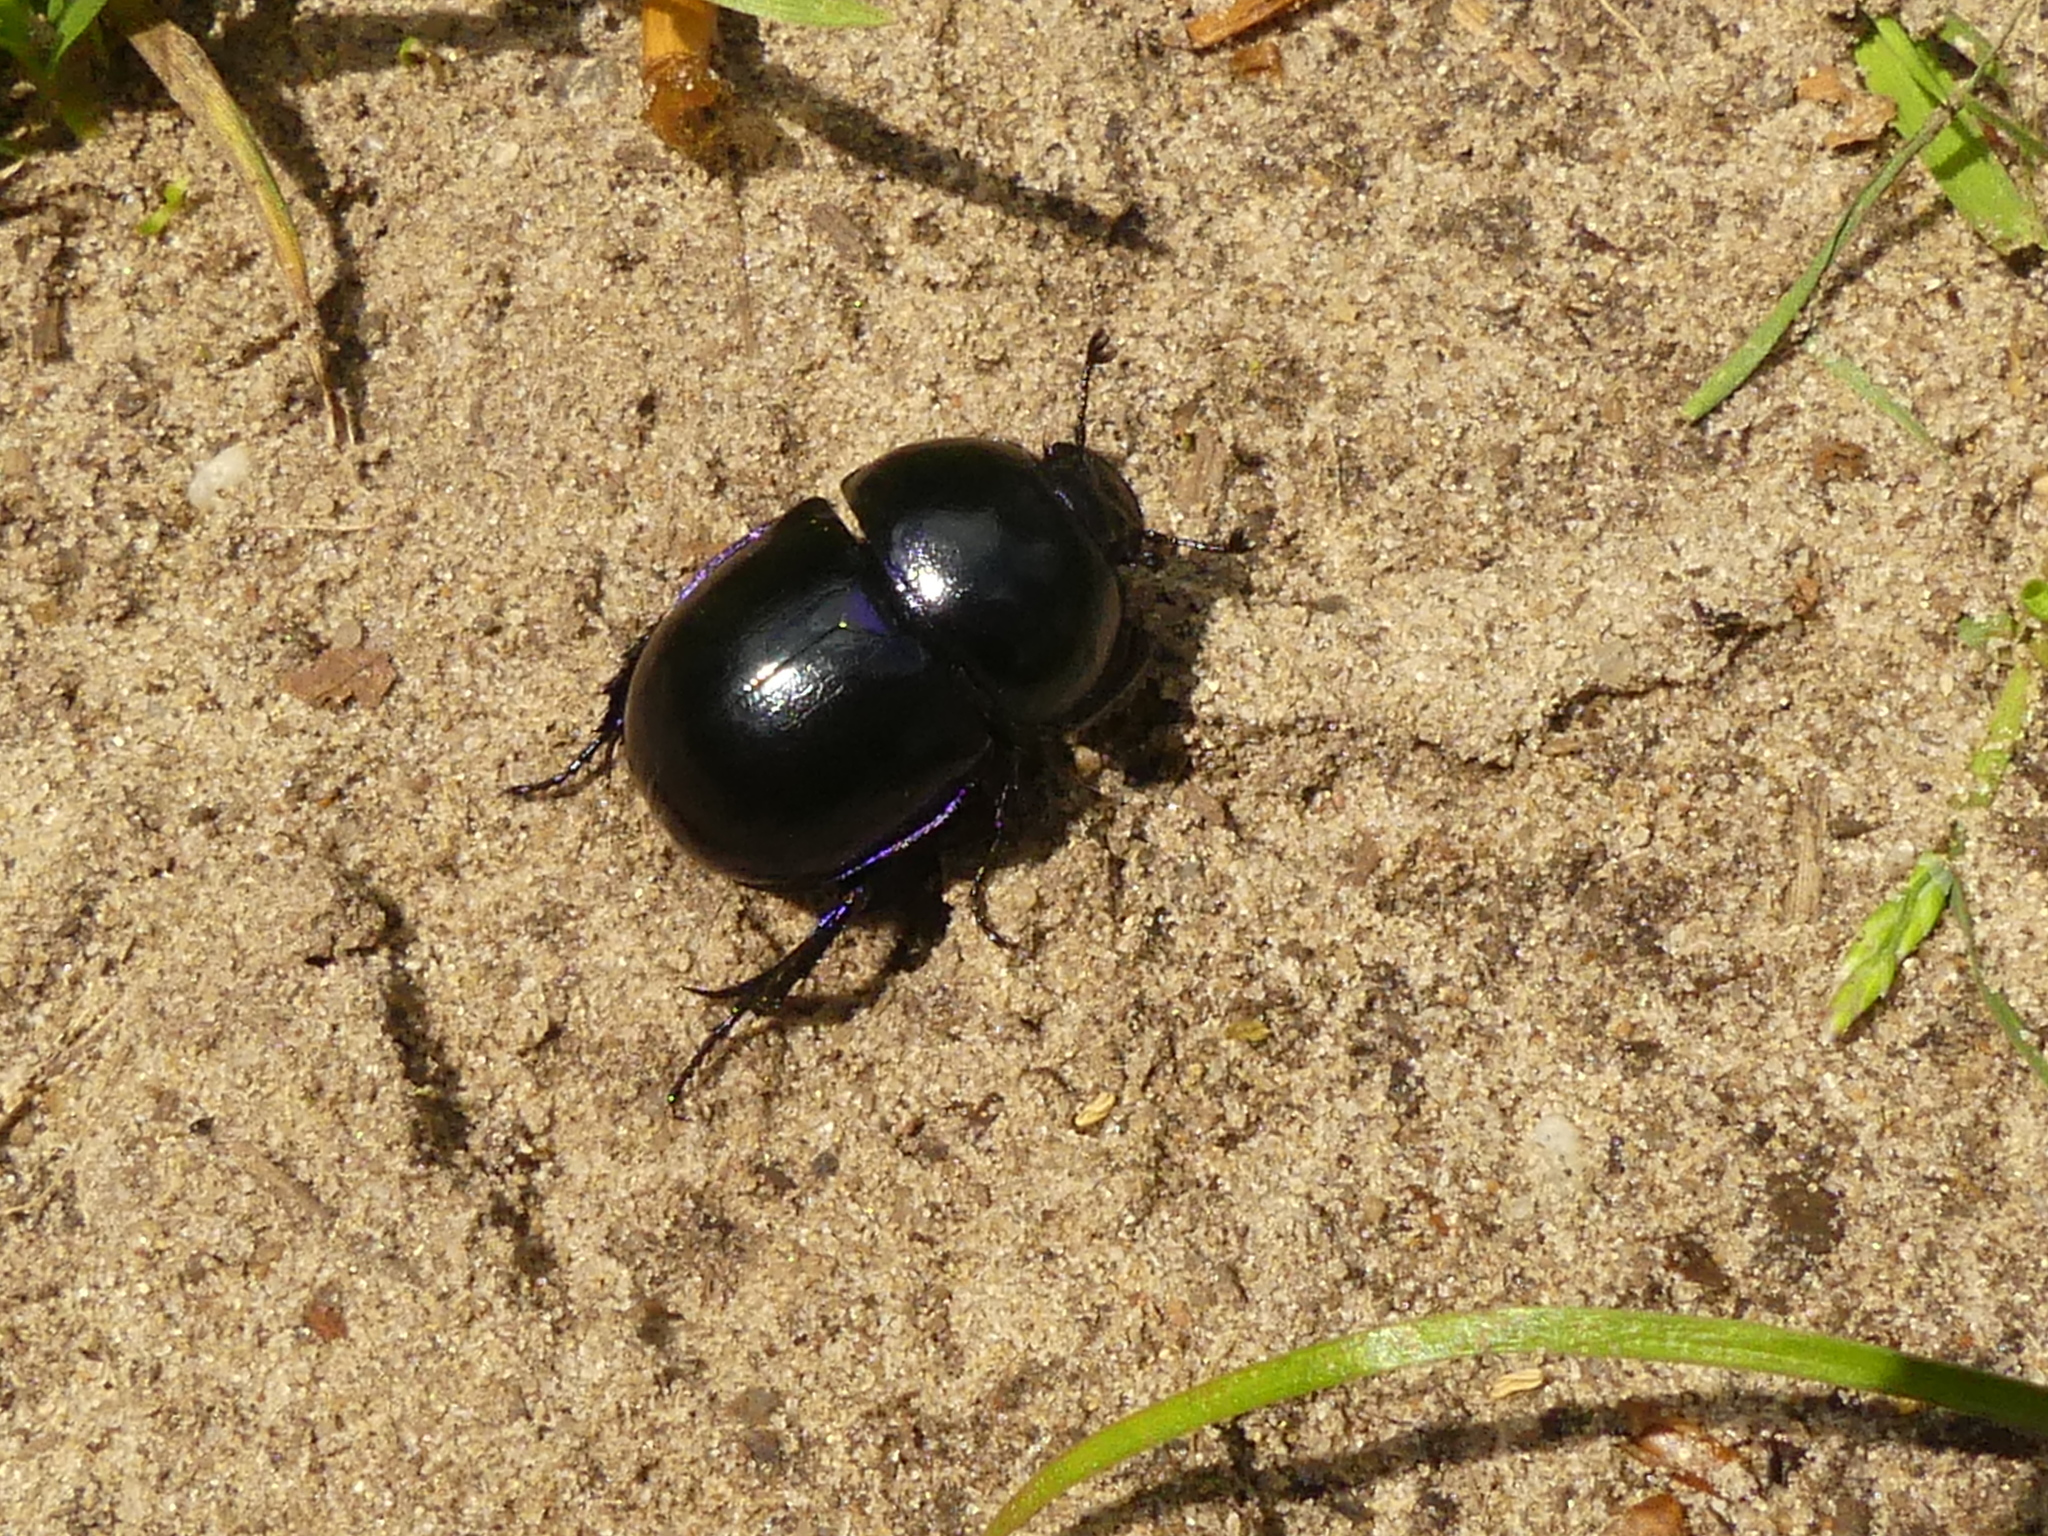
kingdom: Animalia
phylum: Arthropoda
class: Insecta
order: Coleoptera
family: Geotrupidae
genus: Trypocopris
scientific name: Trypocopris vernalis
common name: Spring dumbledor
